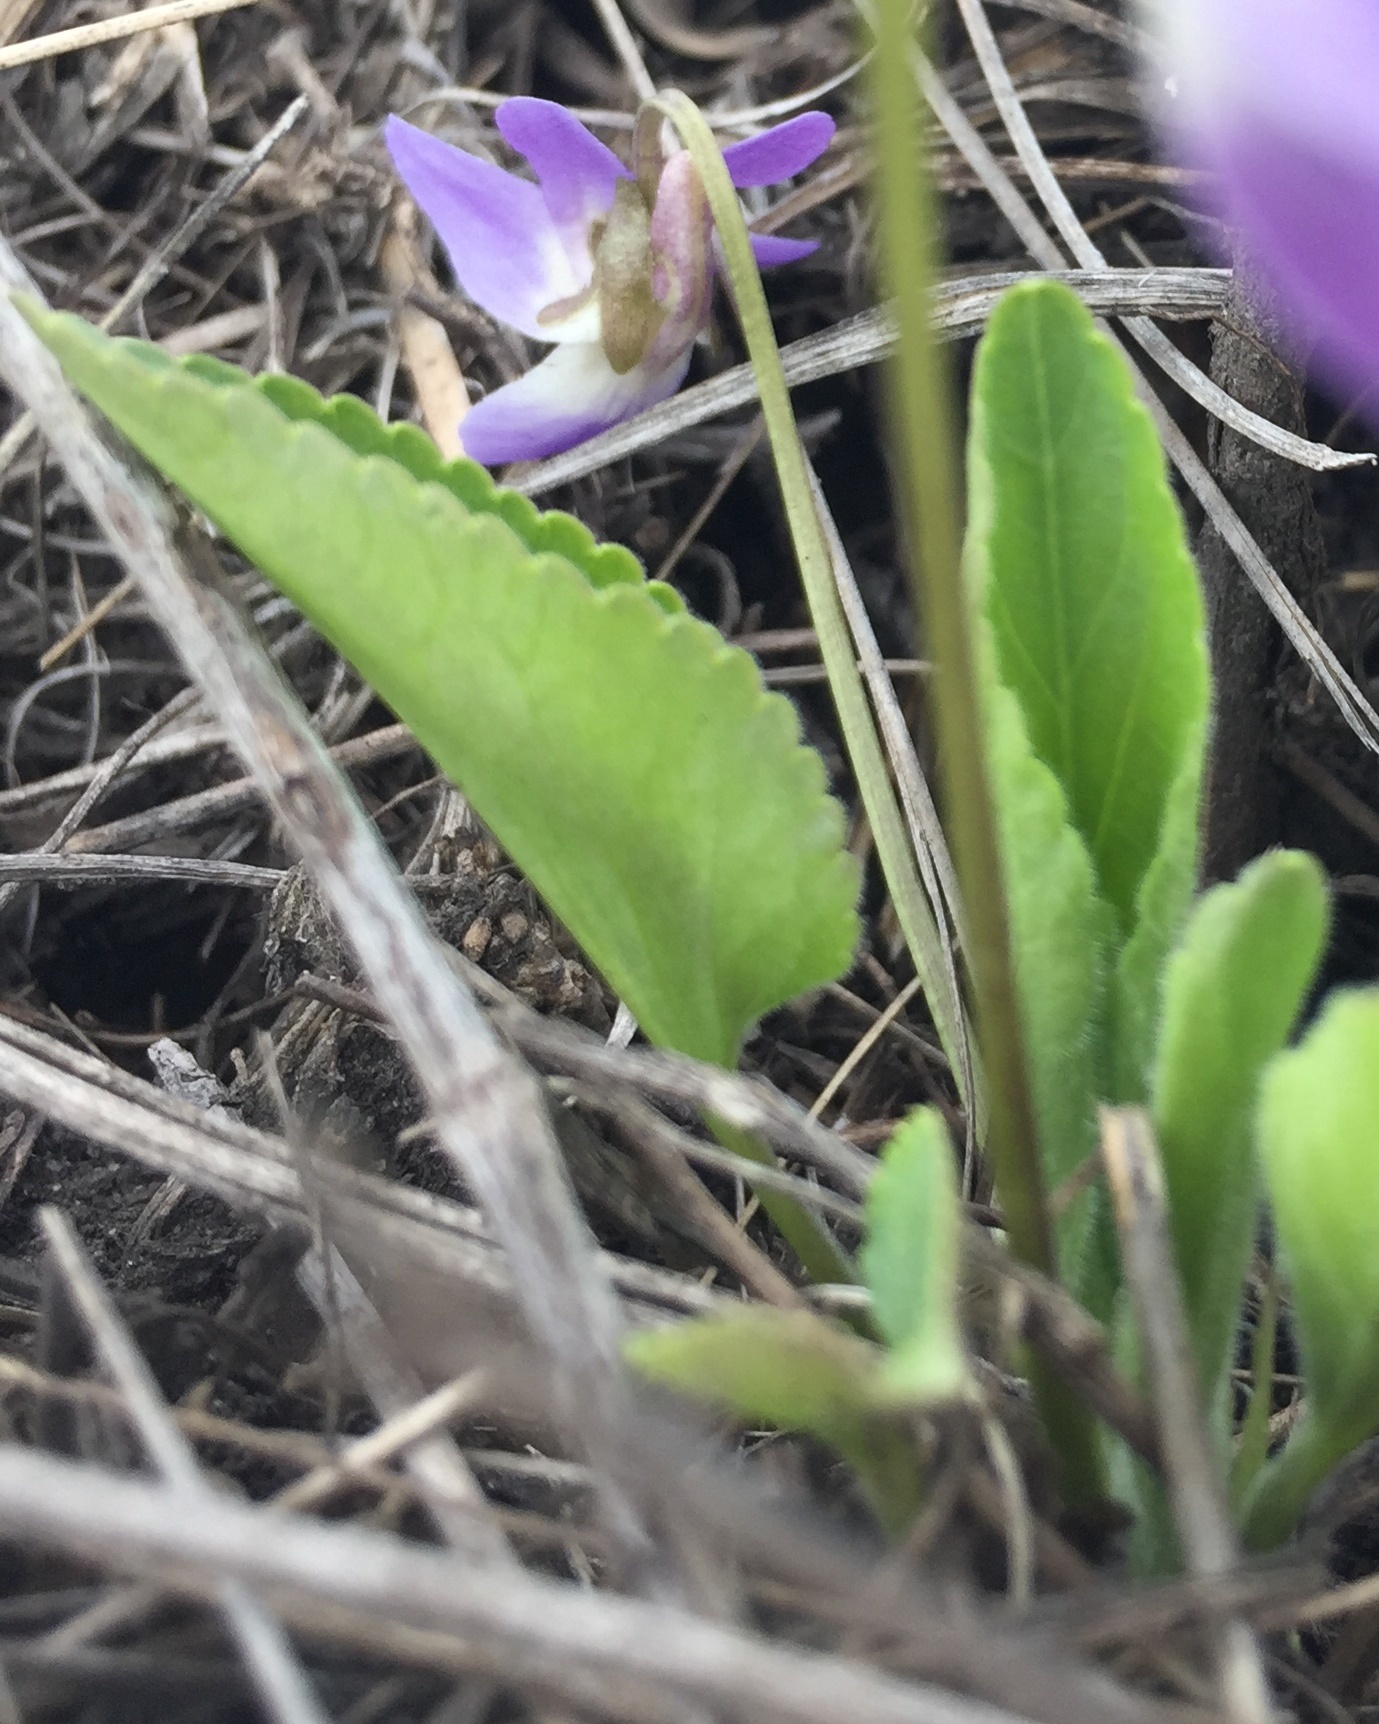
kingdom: Plantae
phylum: Tracheophyta
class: Magnoliopsida
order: Malpighiales
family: Violaceae
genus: Viola
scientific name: Viola ambigua
